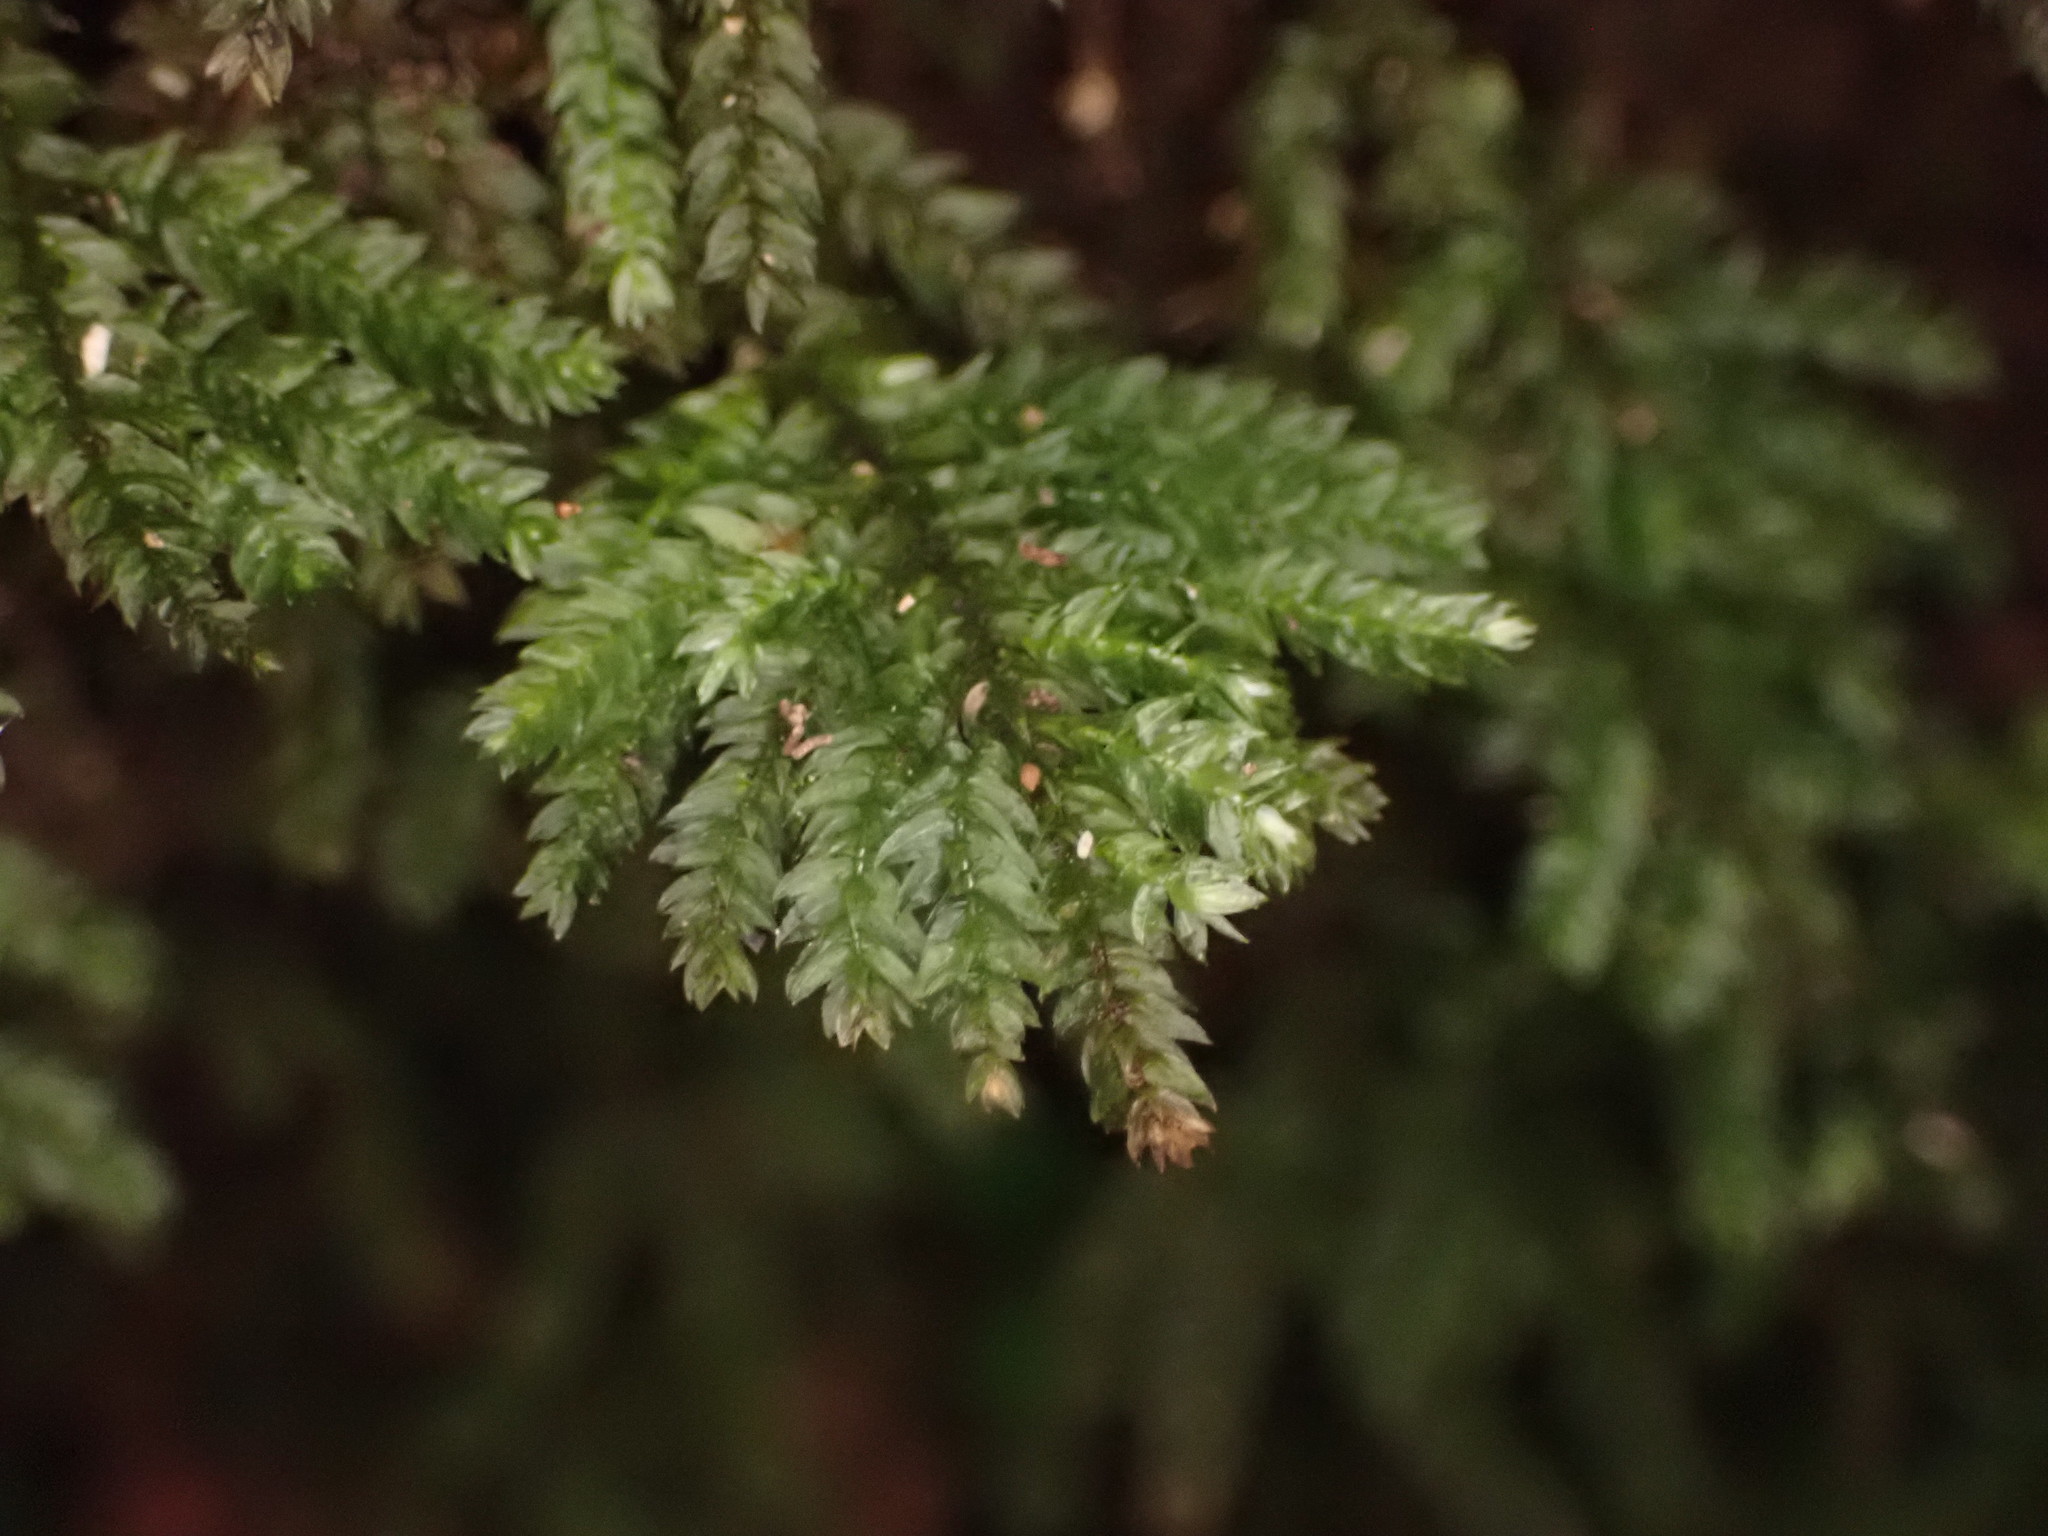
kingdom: Plantae
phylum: Bryophyta
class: Bryopsida
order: Hypnodendrales
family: Spiridentaceae
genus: Hypnodendron
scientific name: Hypnodendron arcuatum
